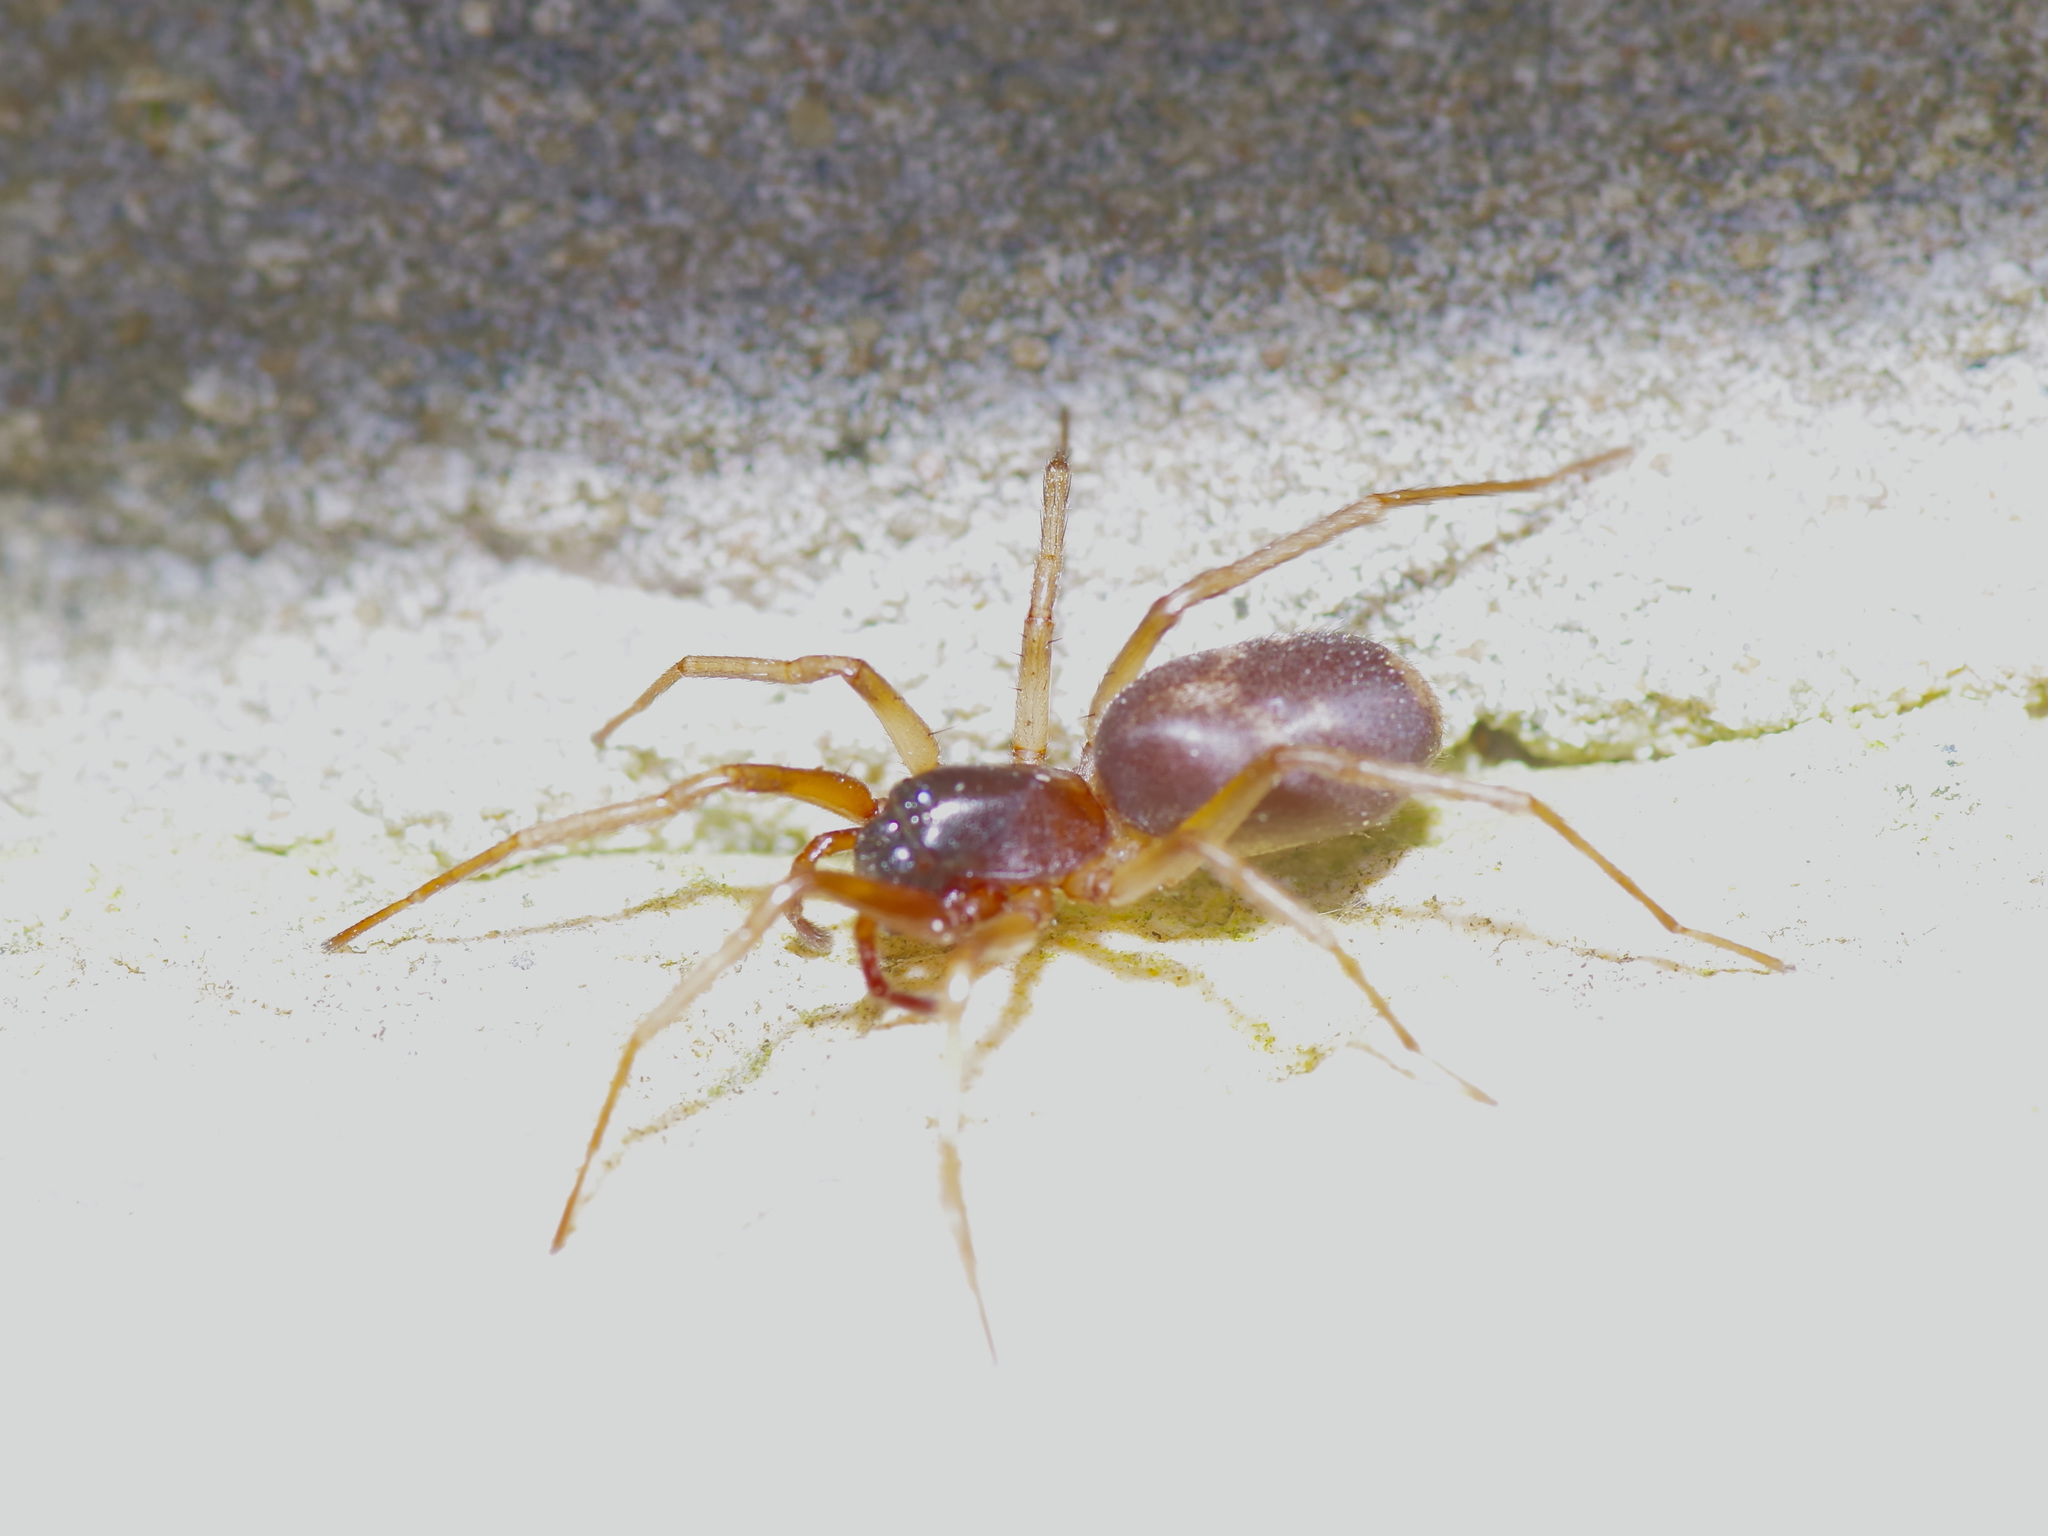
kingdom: Animalia
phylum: Arthropoda
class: Arachnida
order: Araneae
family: Corinnidae
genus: Falconina
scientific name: Falconina gracilis
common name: Antmimic spider
